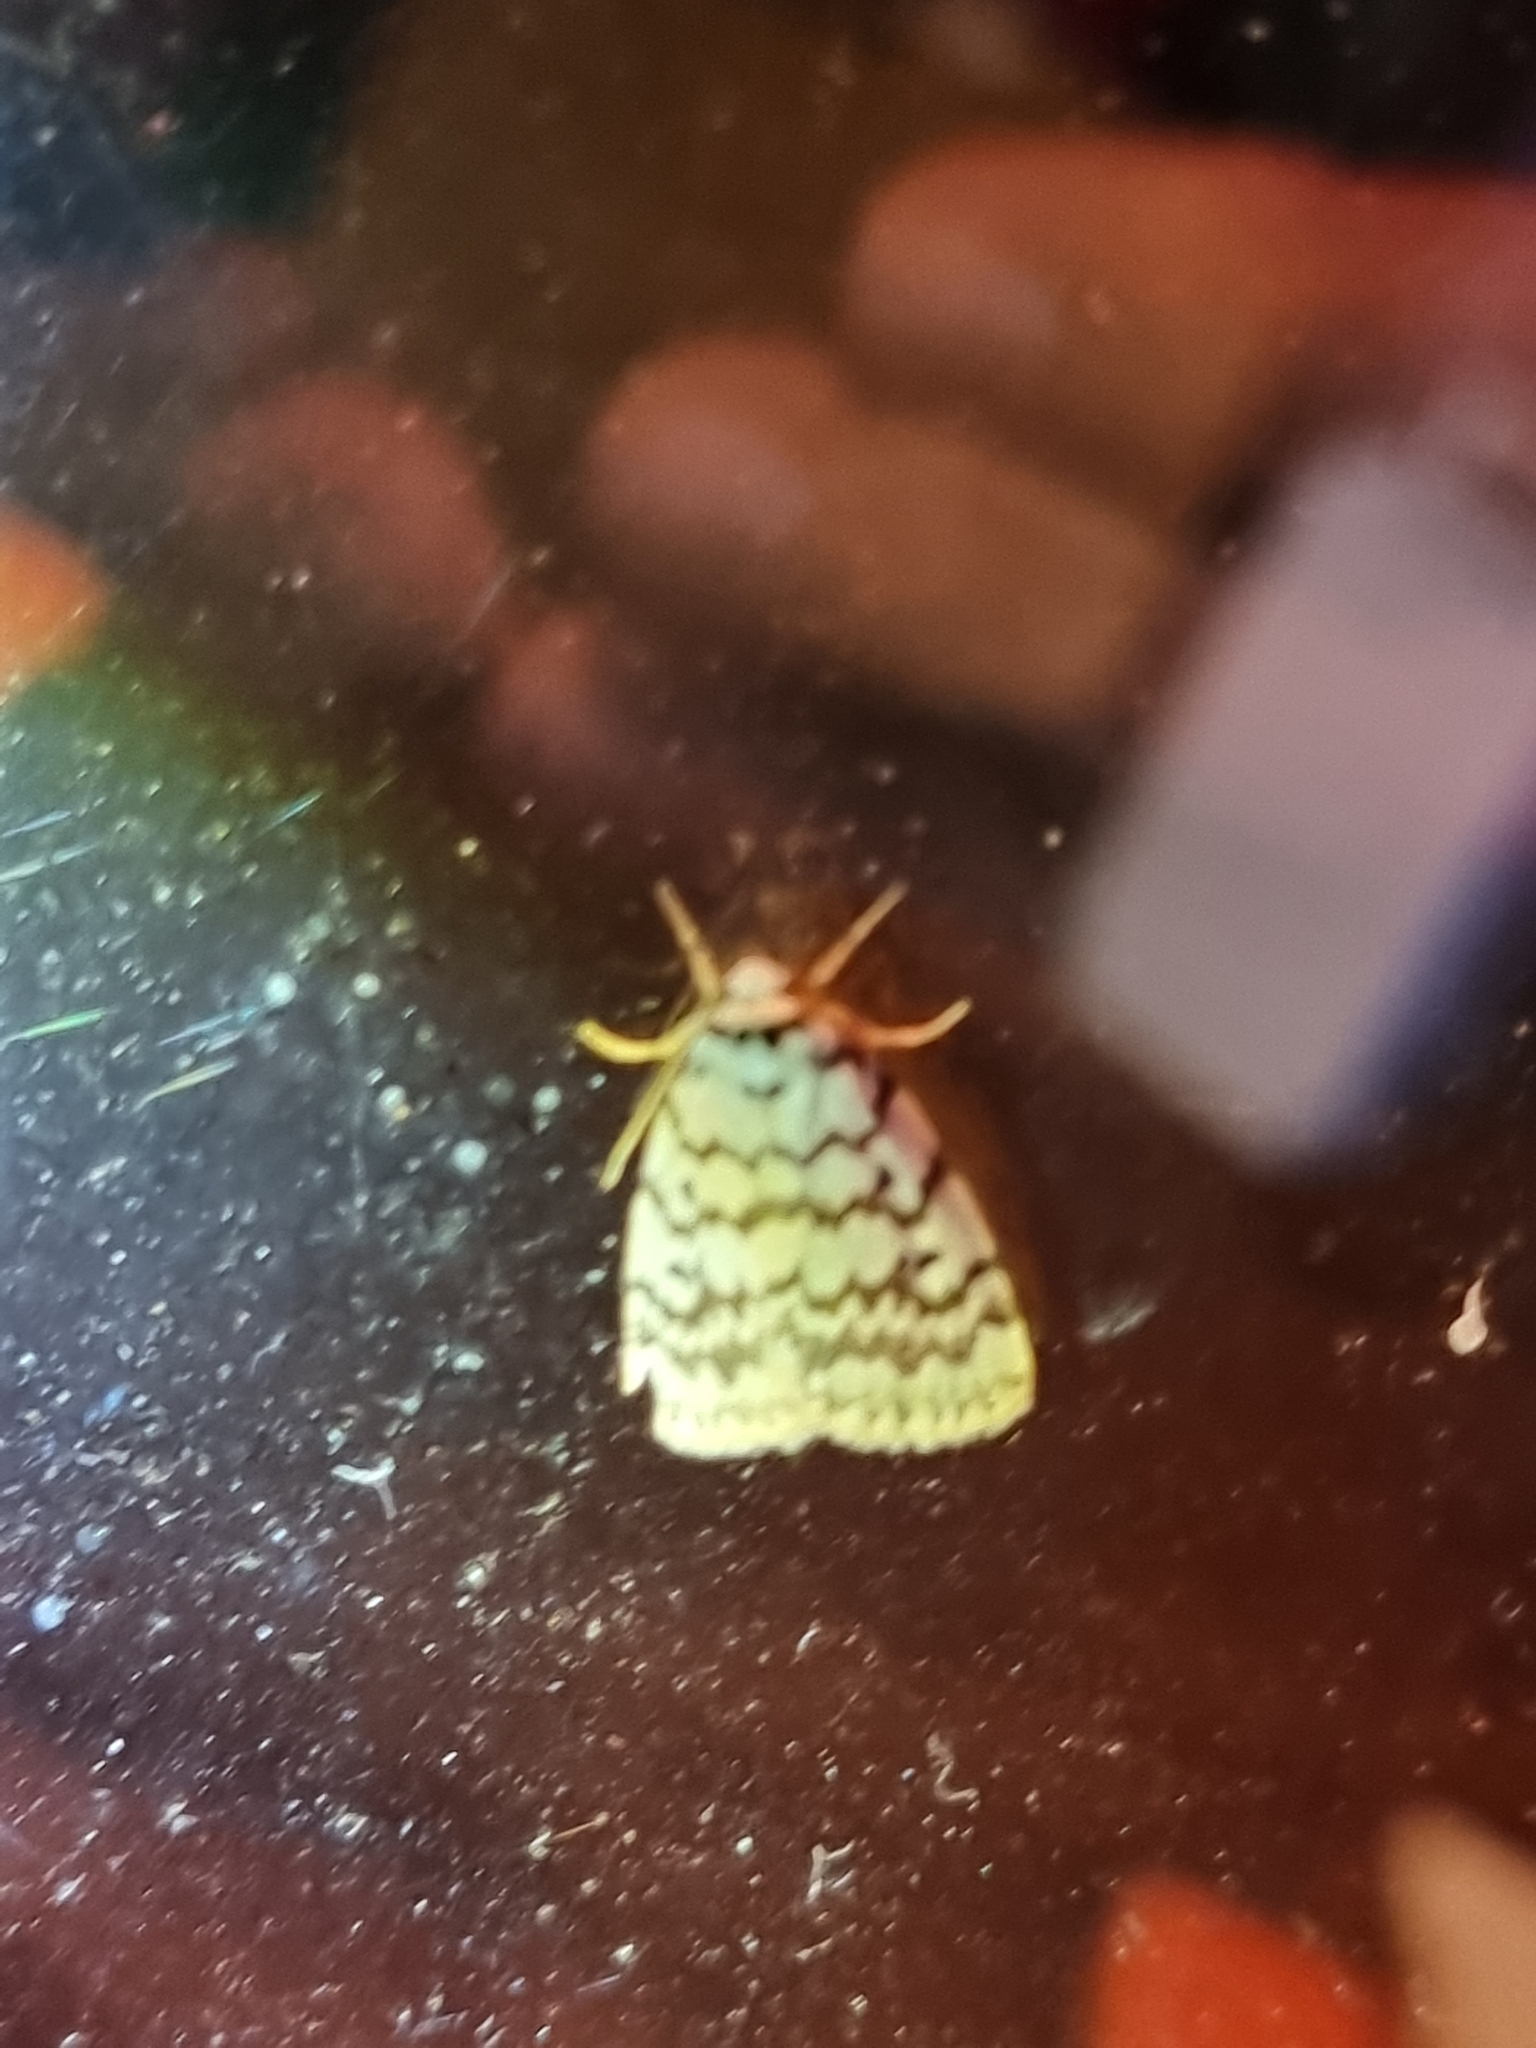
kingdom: Animalia
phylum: Arthropoda
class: Insecta
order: Lepidoptera
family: Erebidae
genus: Hectobrocha
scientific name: Hectobrocha pentacyma
